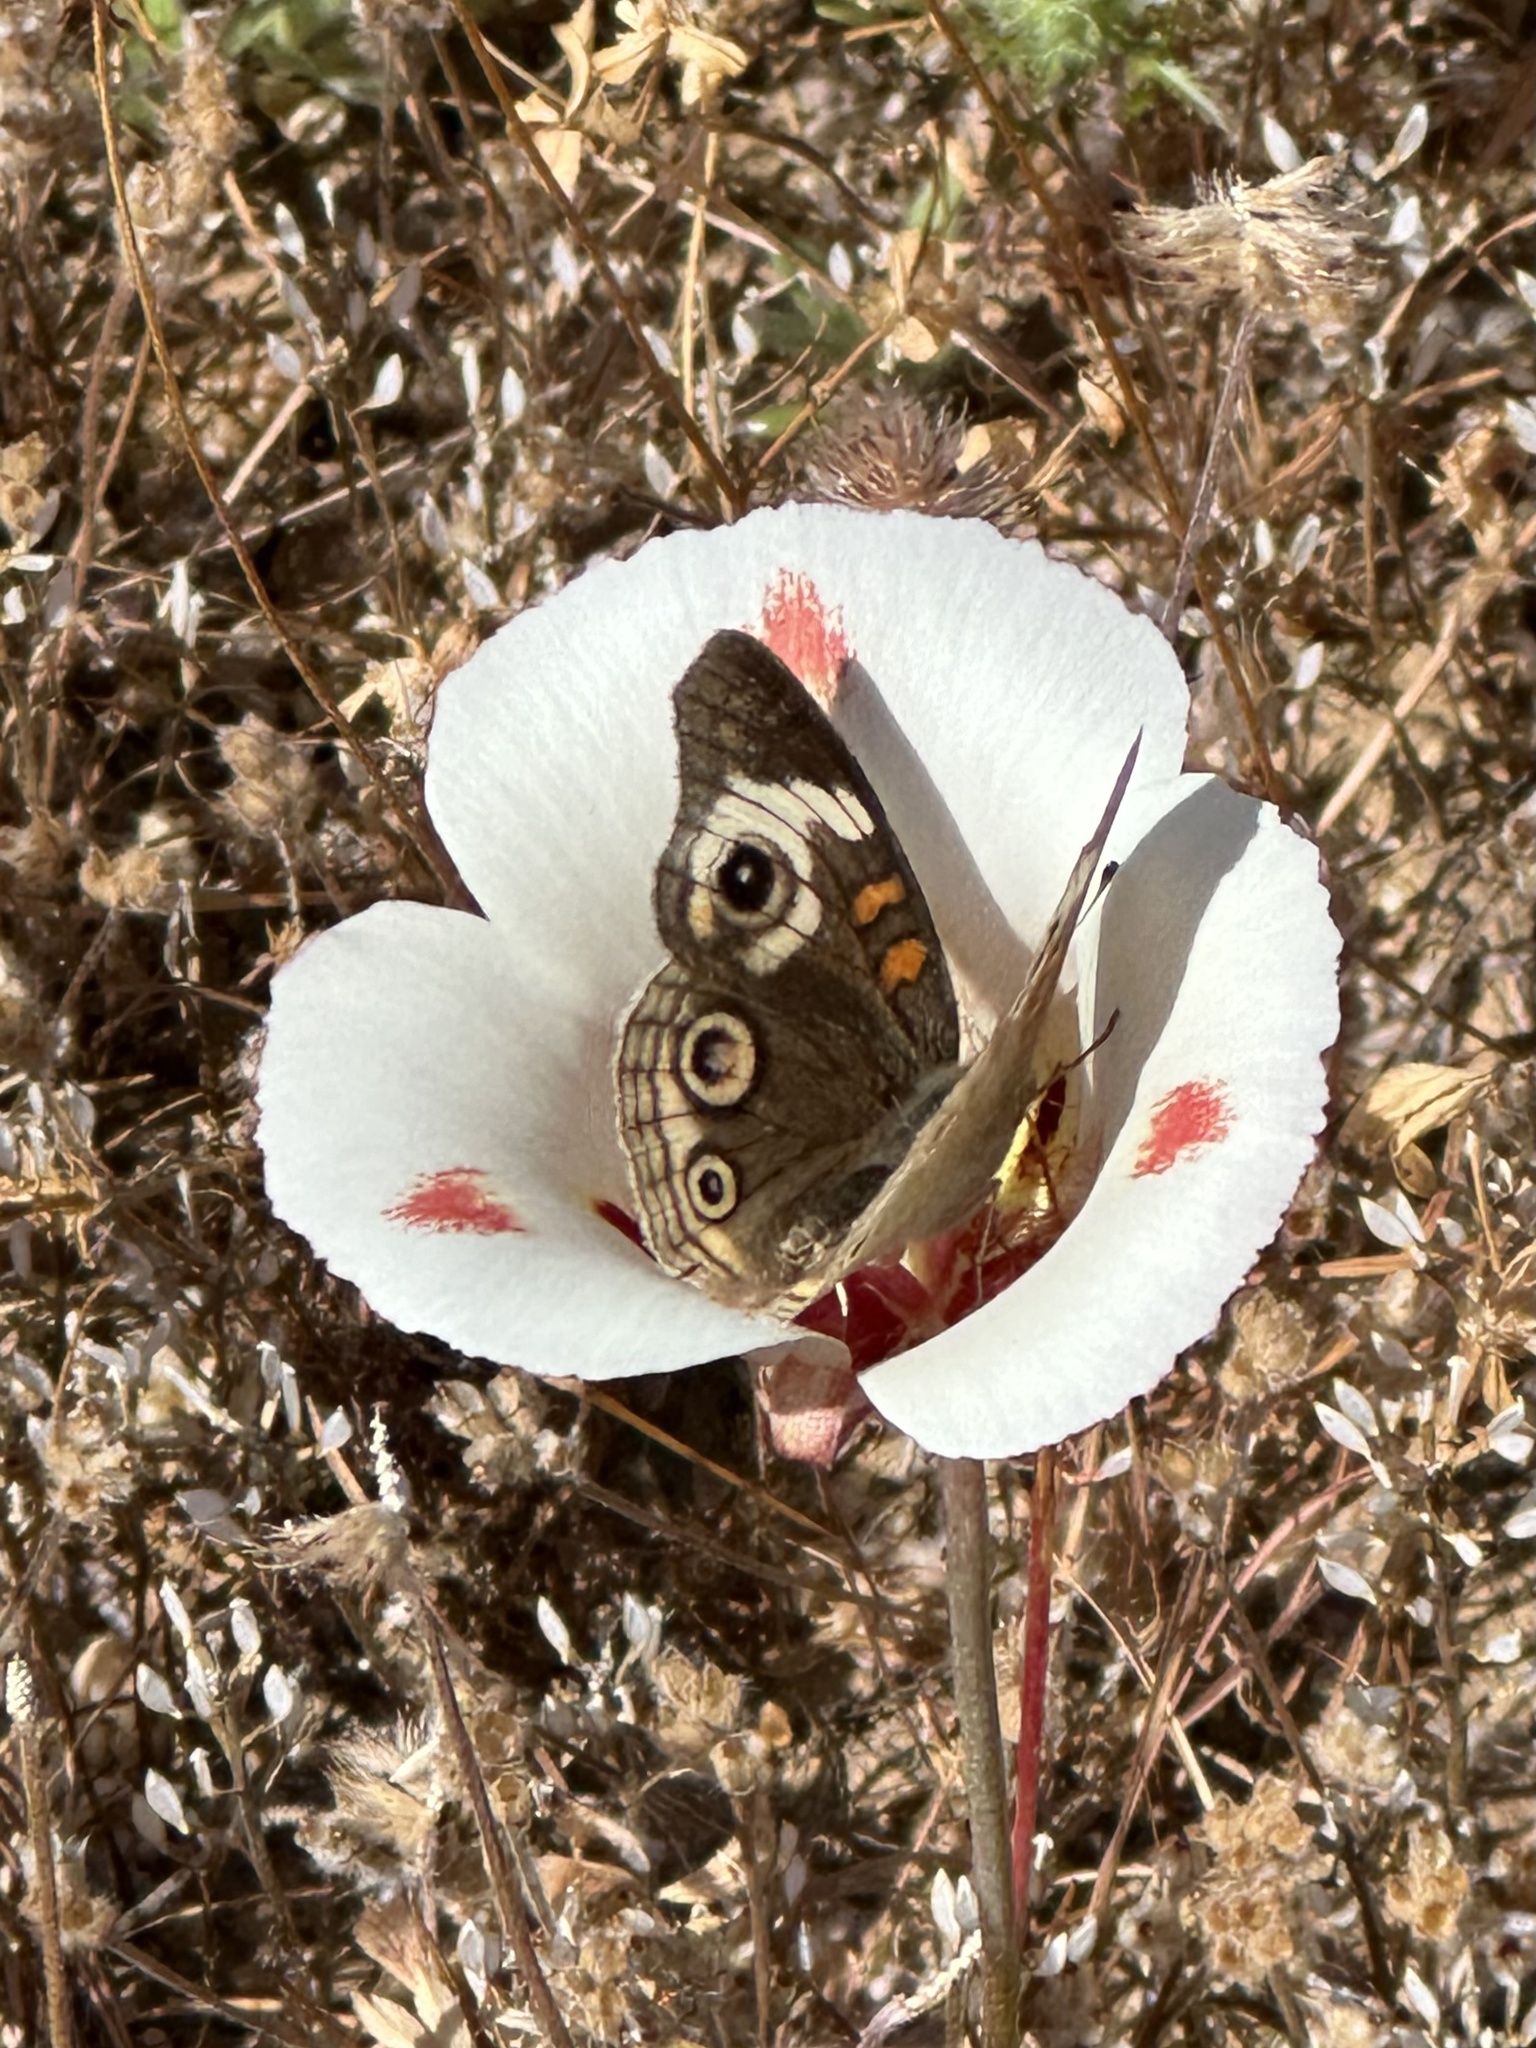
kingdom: Animalia
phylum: Arthropoda
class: Insecta
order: Lepidoptera
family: Nymphalidae
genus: Junonia
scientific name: Junonia grisea
